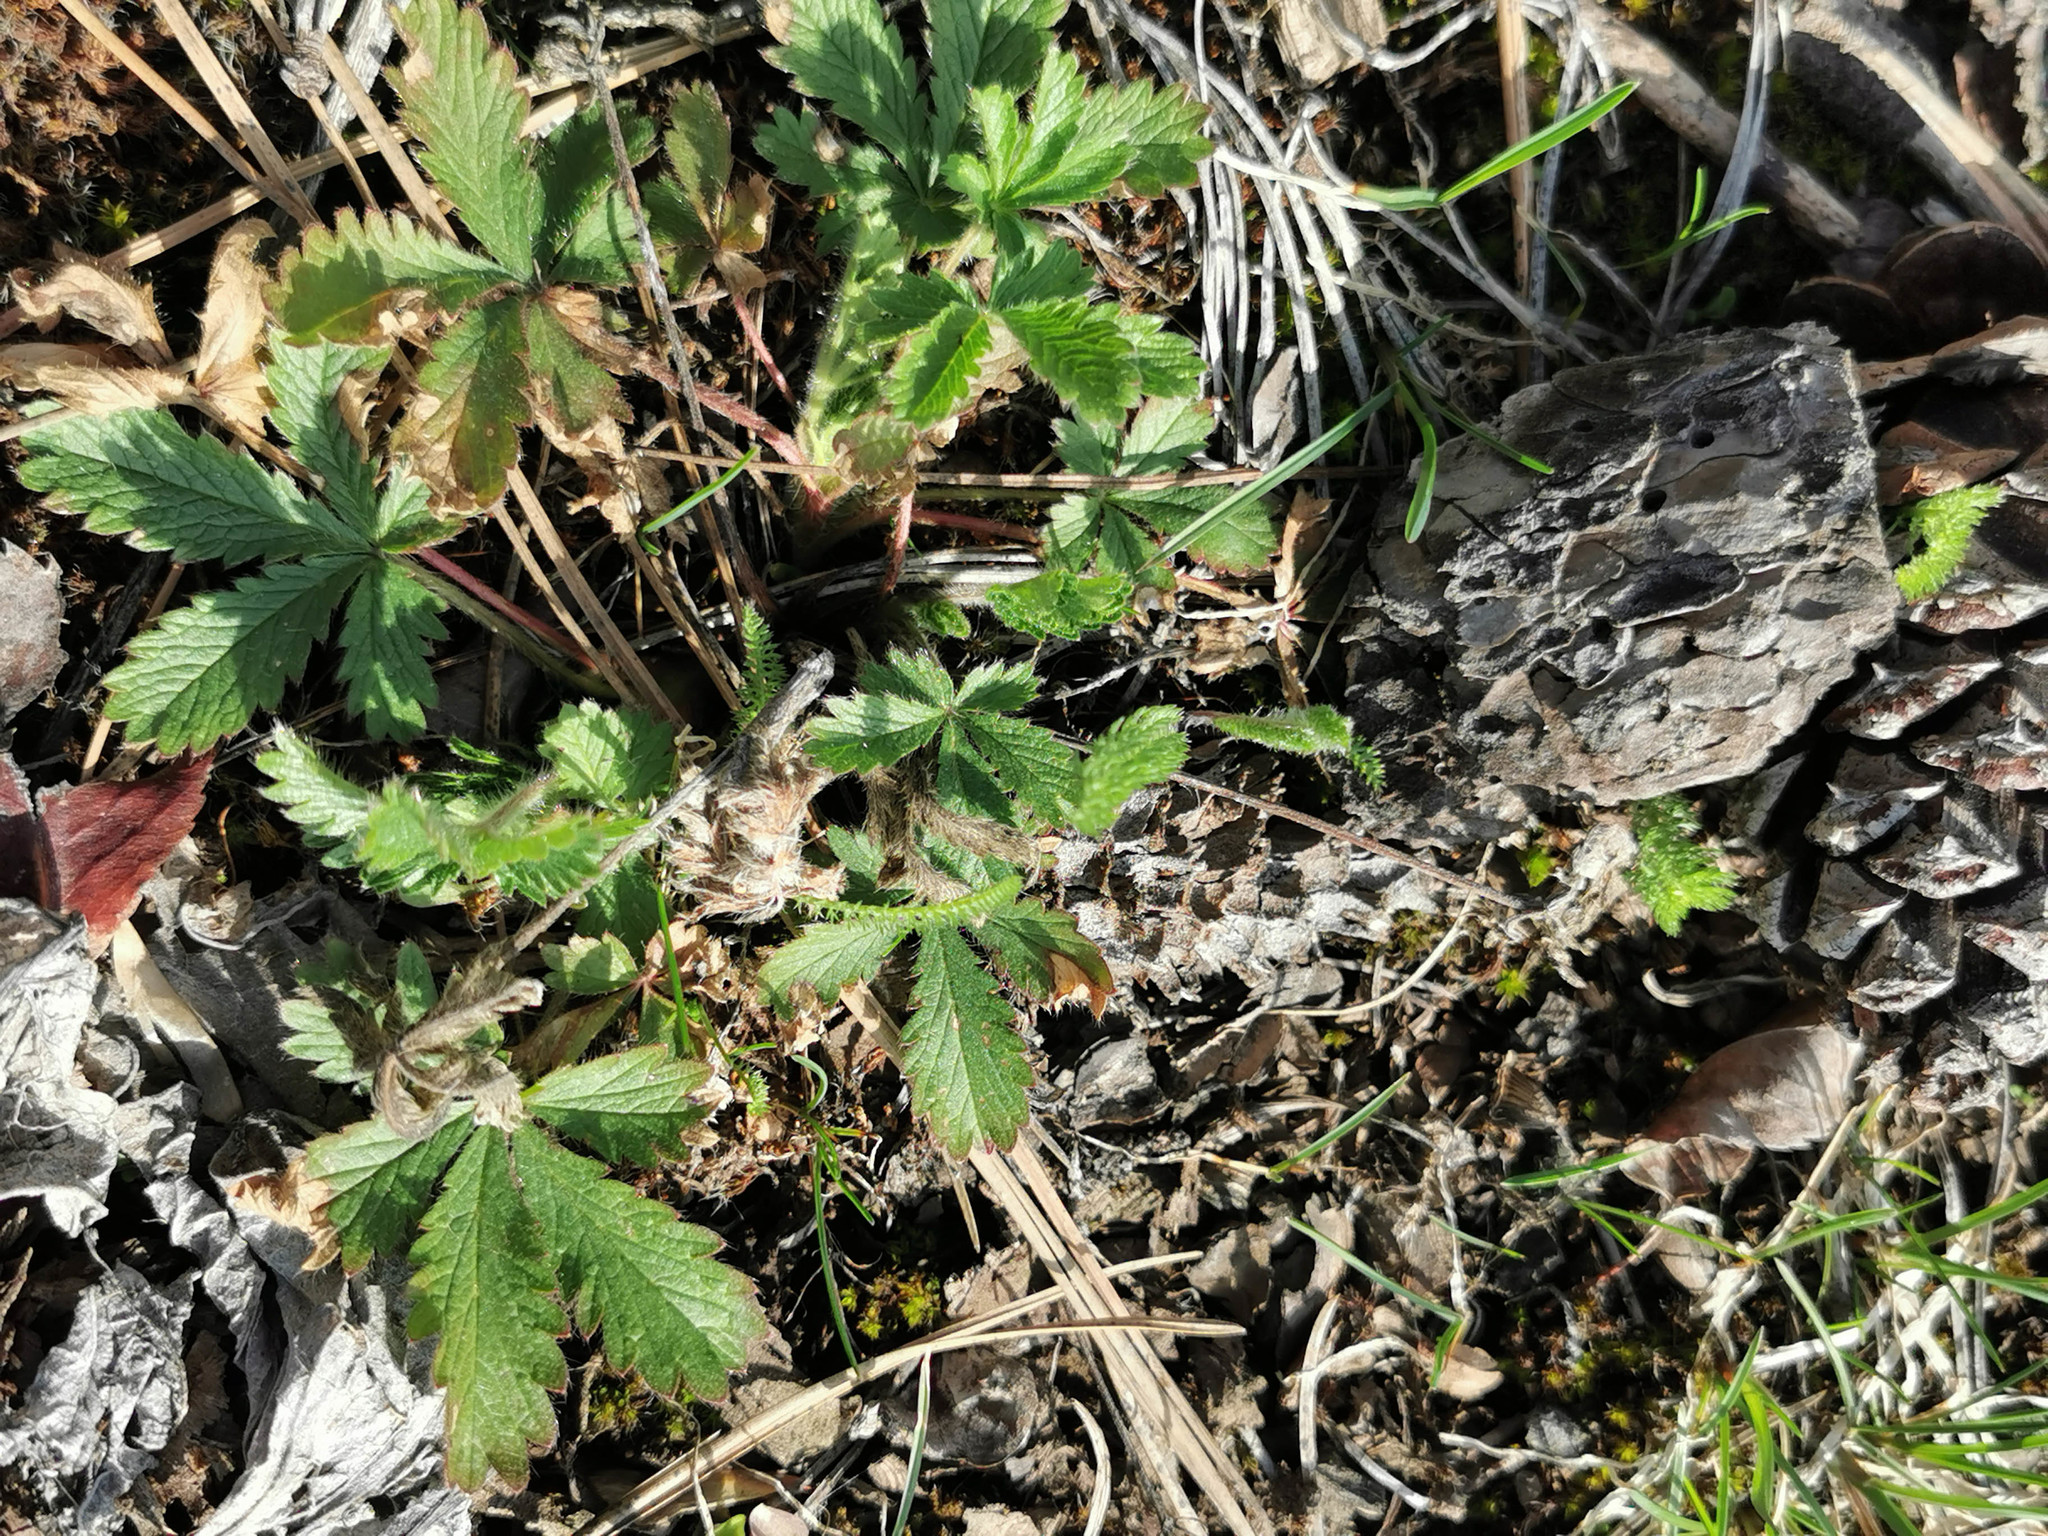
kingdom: Plantae
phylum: Tracheophyta
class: Magnoliopsida
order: Rosales
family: Rosaceae
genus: Potentilla
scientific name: Potentilla recta
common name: Sulphur cinquefoil
